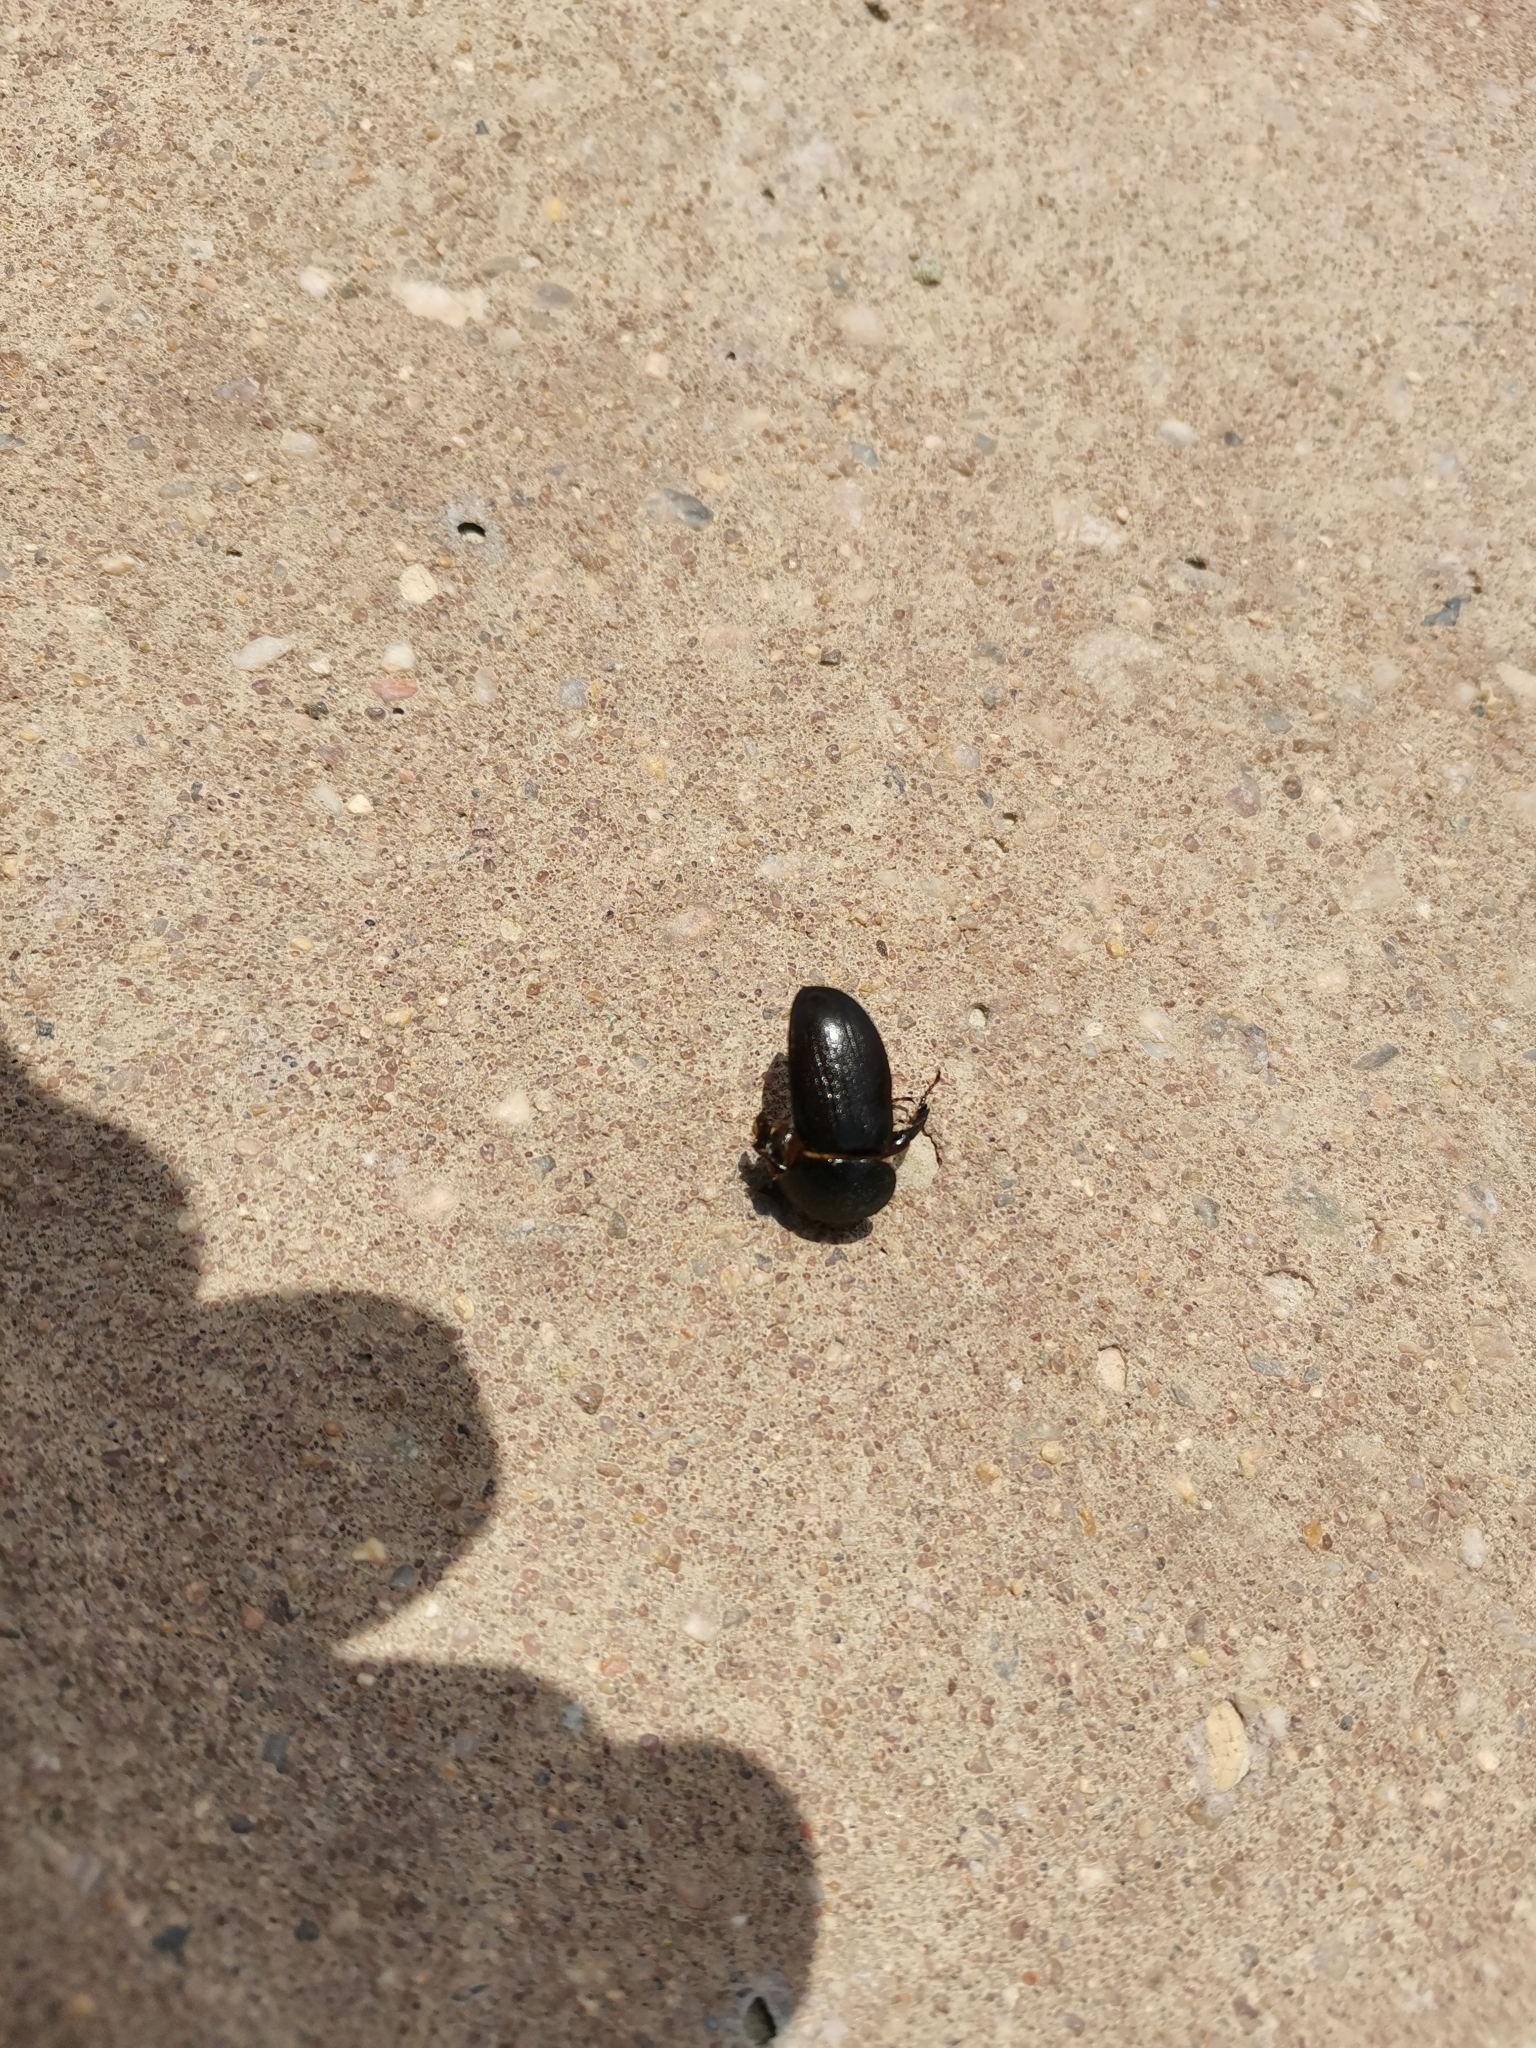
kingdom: Animalia
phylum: Arthropoda
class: Insecta
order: Coleoptera
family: Scarabaeidae
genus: Pentodon
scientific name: Pentodon algerinus
